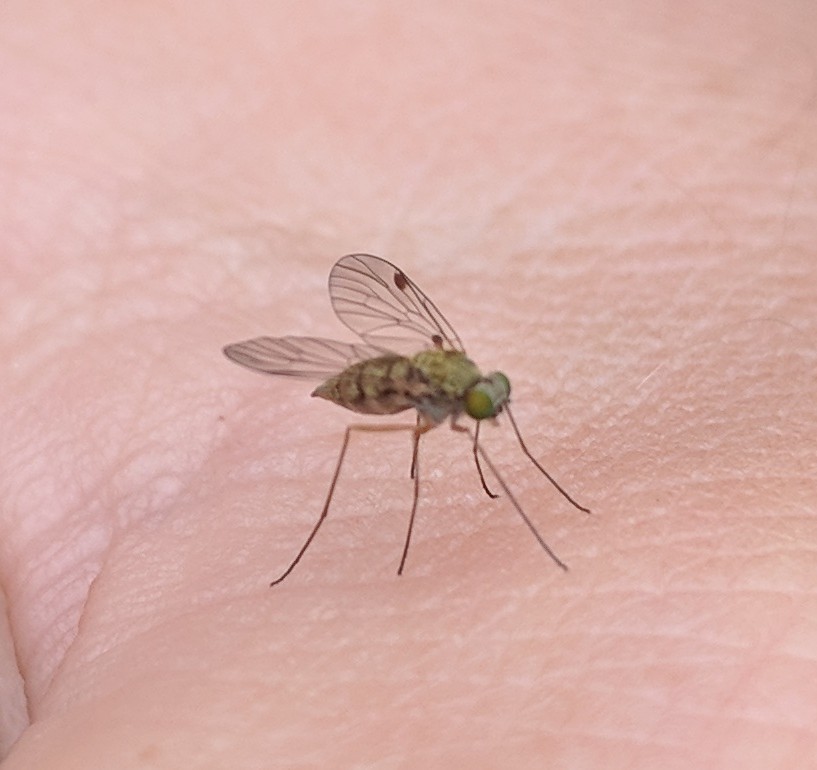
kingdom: Animalia
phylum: Arthropoda
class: Insecta
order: Diptera
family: Rhagionidae
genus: Chrysopilus
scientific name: Chrysopilus asiliformis
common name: Little snipefly
